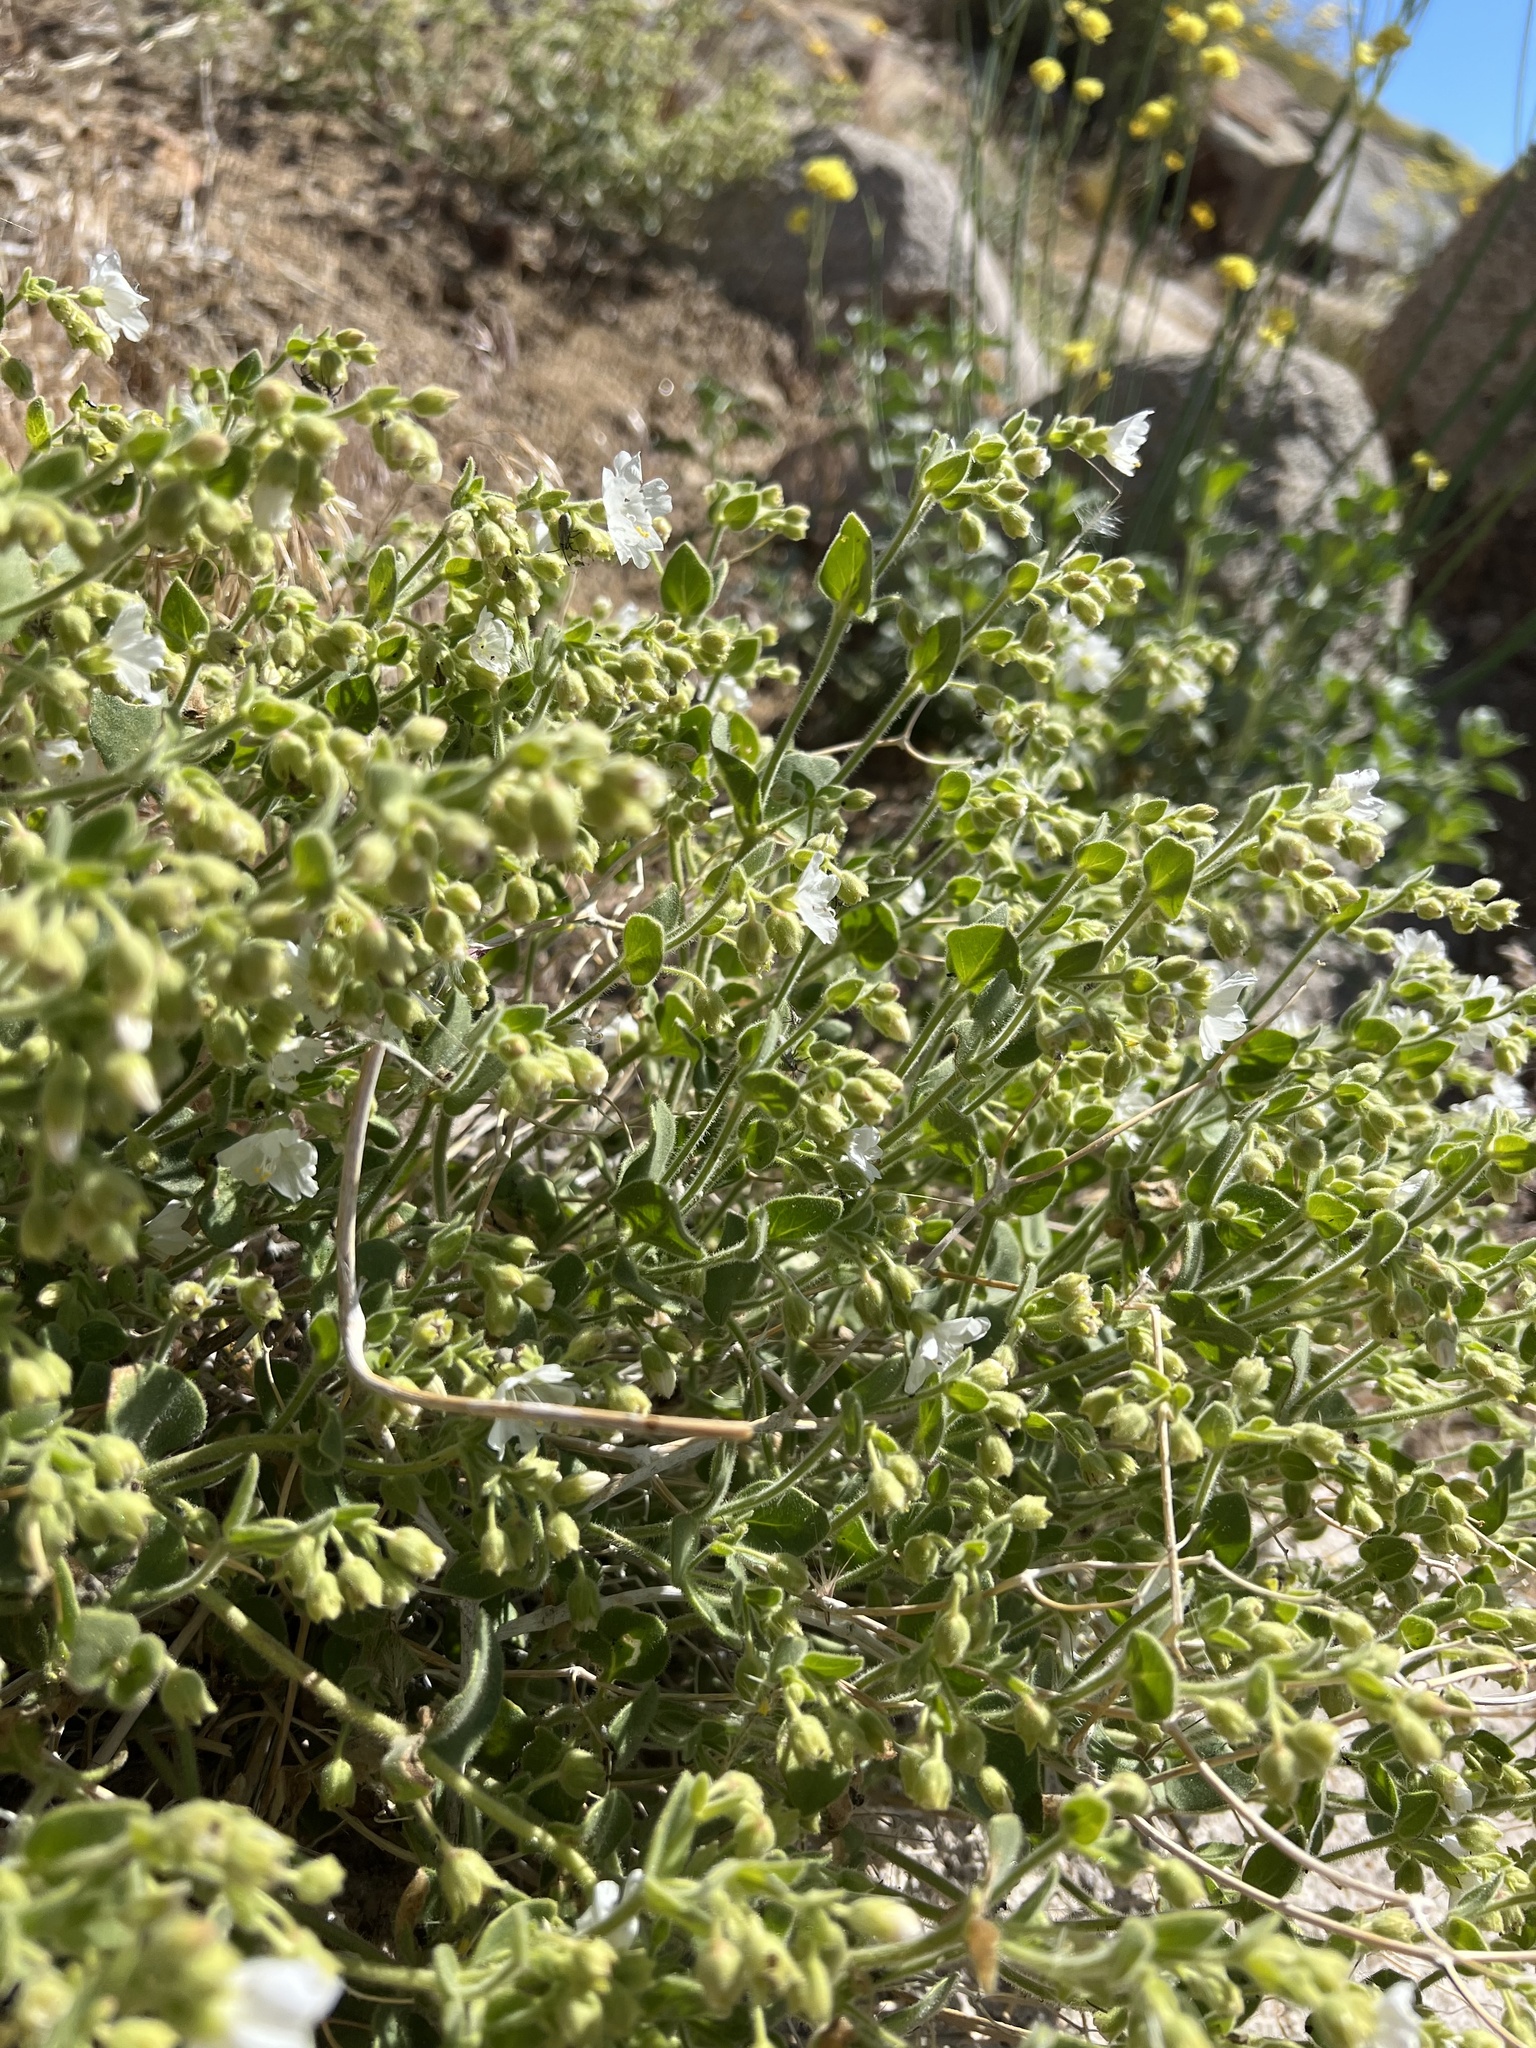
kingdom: Plantae
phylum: Tracheophyta
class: Magnoliopsida
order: Caryophyllales
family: Nyctaginaceae
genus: Mirabilis
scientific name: Mirabilis laevis
